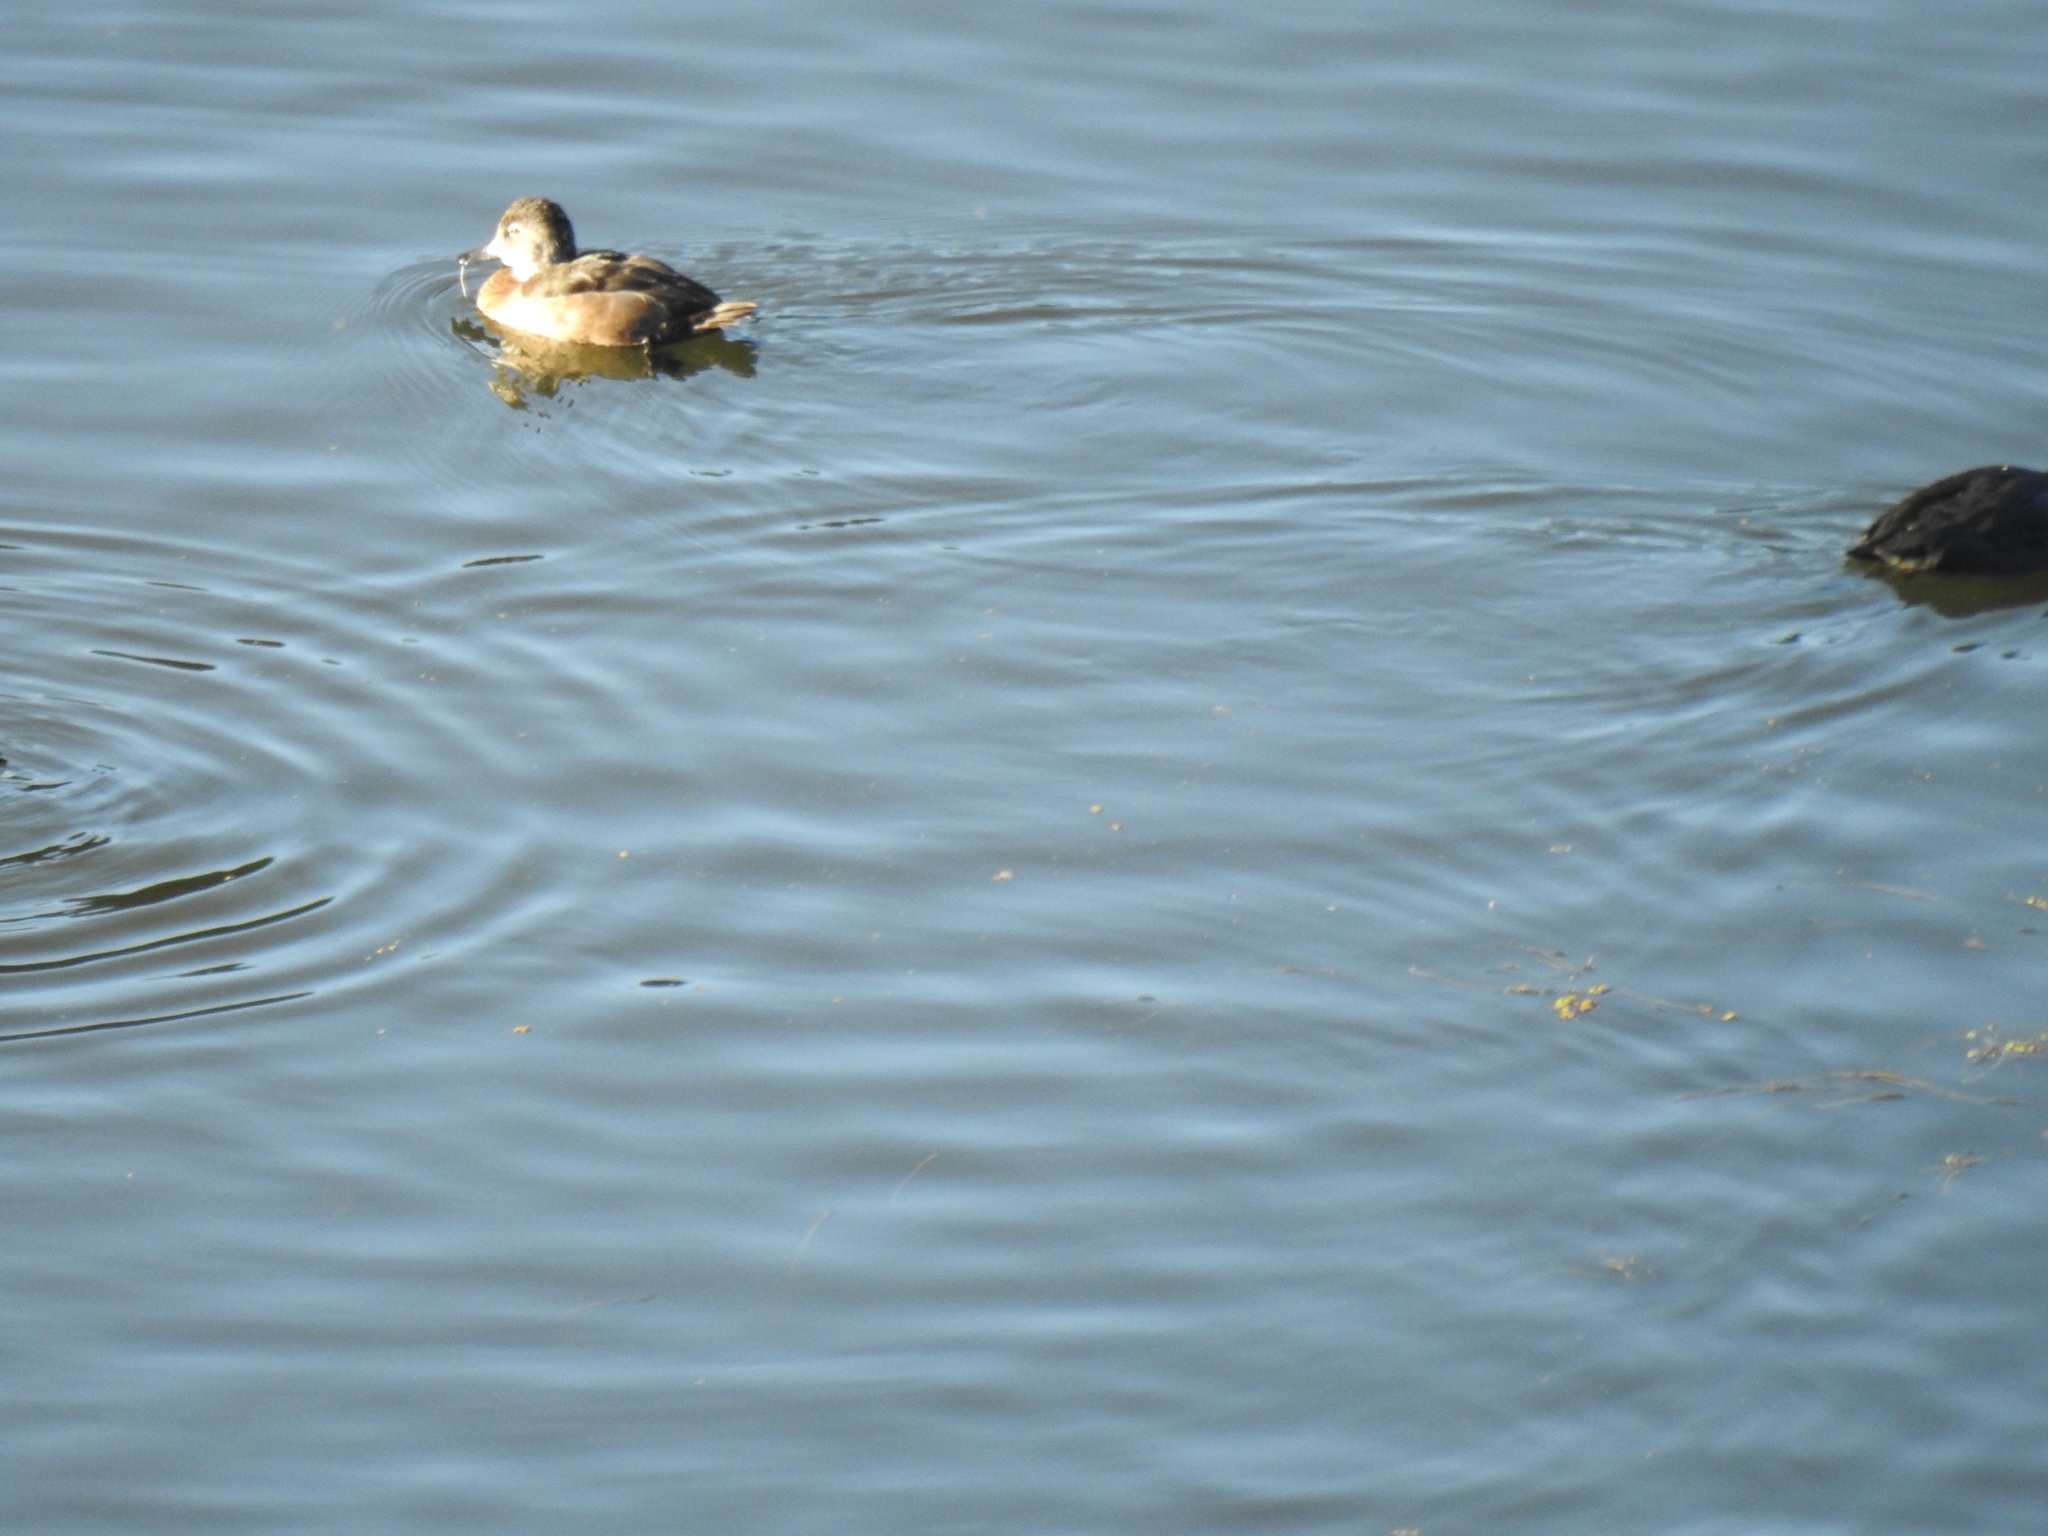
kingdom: Animalia
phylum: Chordata
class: Aves
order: Anseriformes
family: Anatidae
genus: Aythya
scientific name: Aythya collaris
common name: Ring-necked duck
